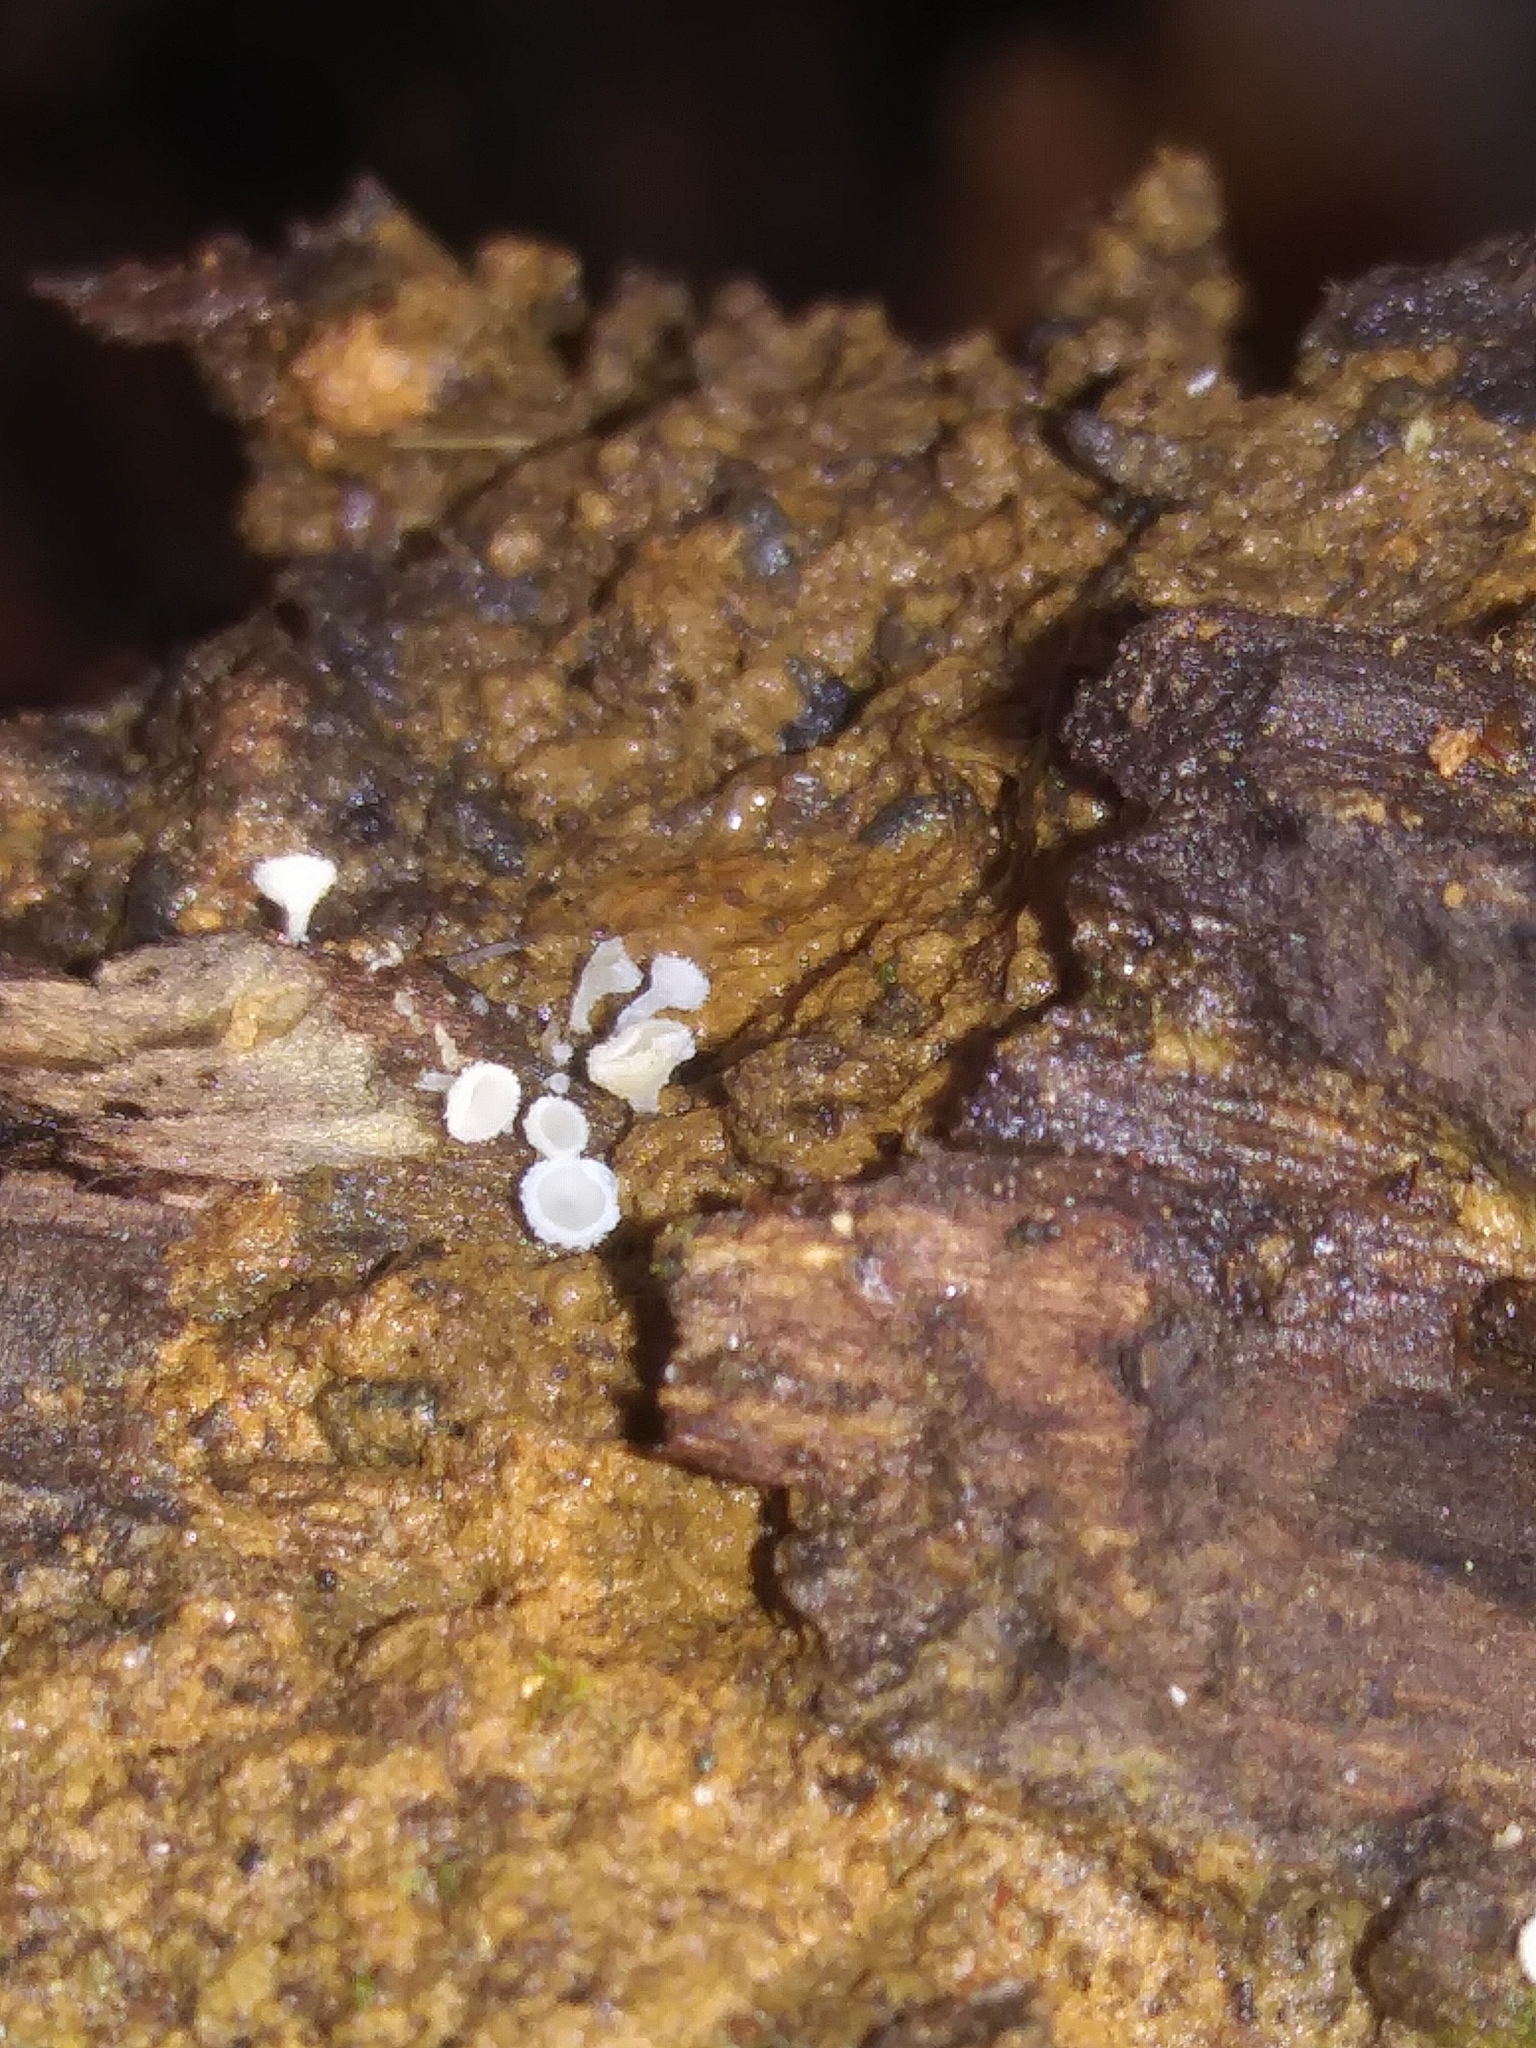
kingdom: Fungi
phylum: Ascomycota
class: Leotiomycetes
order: Helotiales
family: Lachnaceae
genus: Lachnum
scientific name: Lachnum virgineum
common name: Snowy disco
